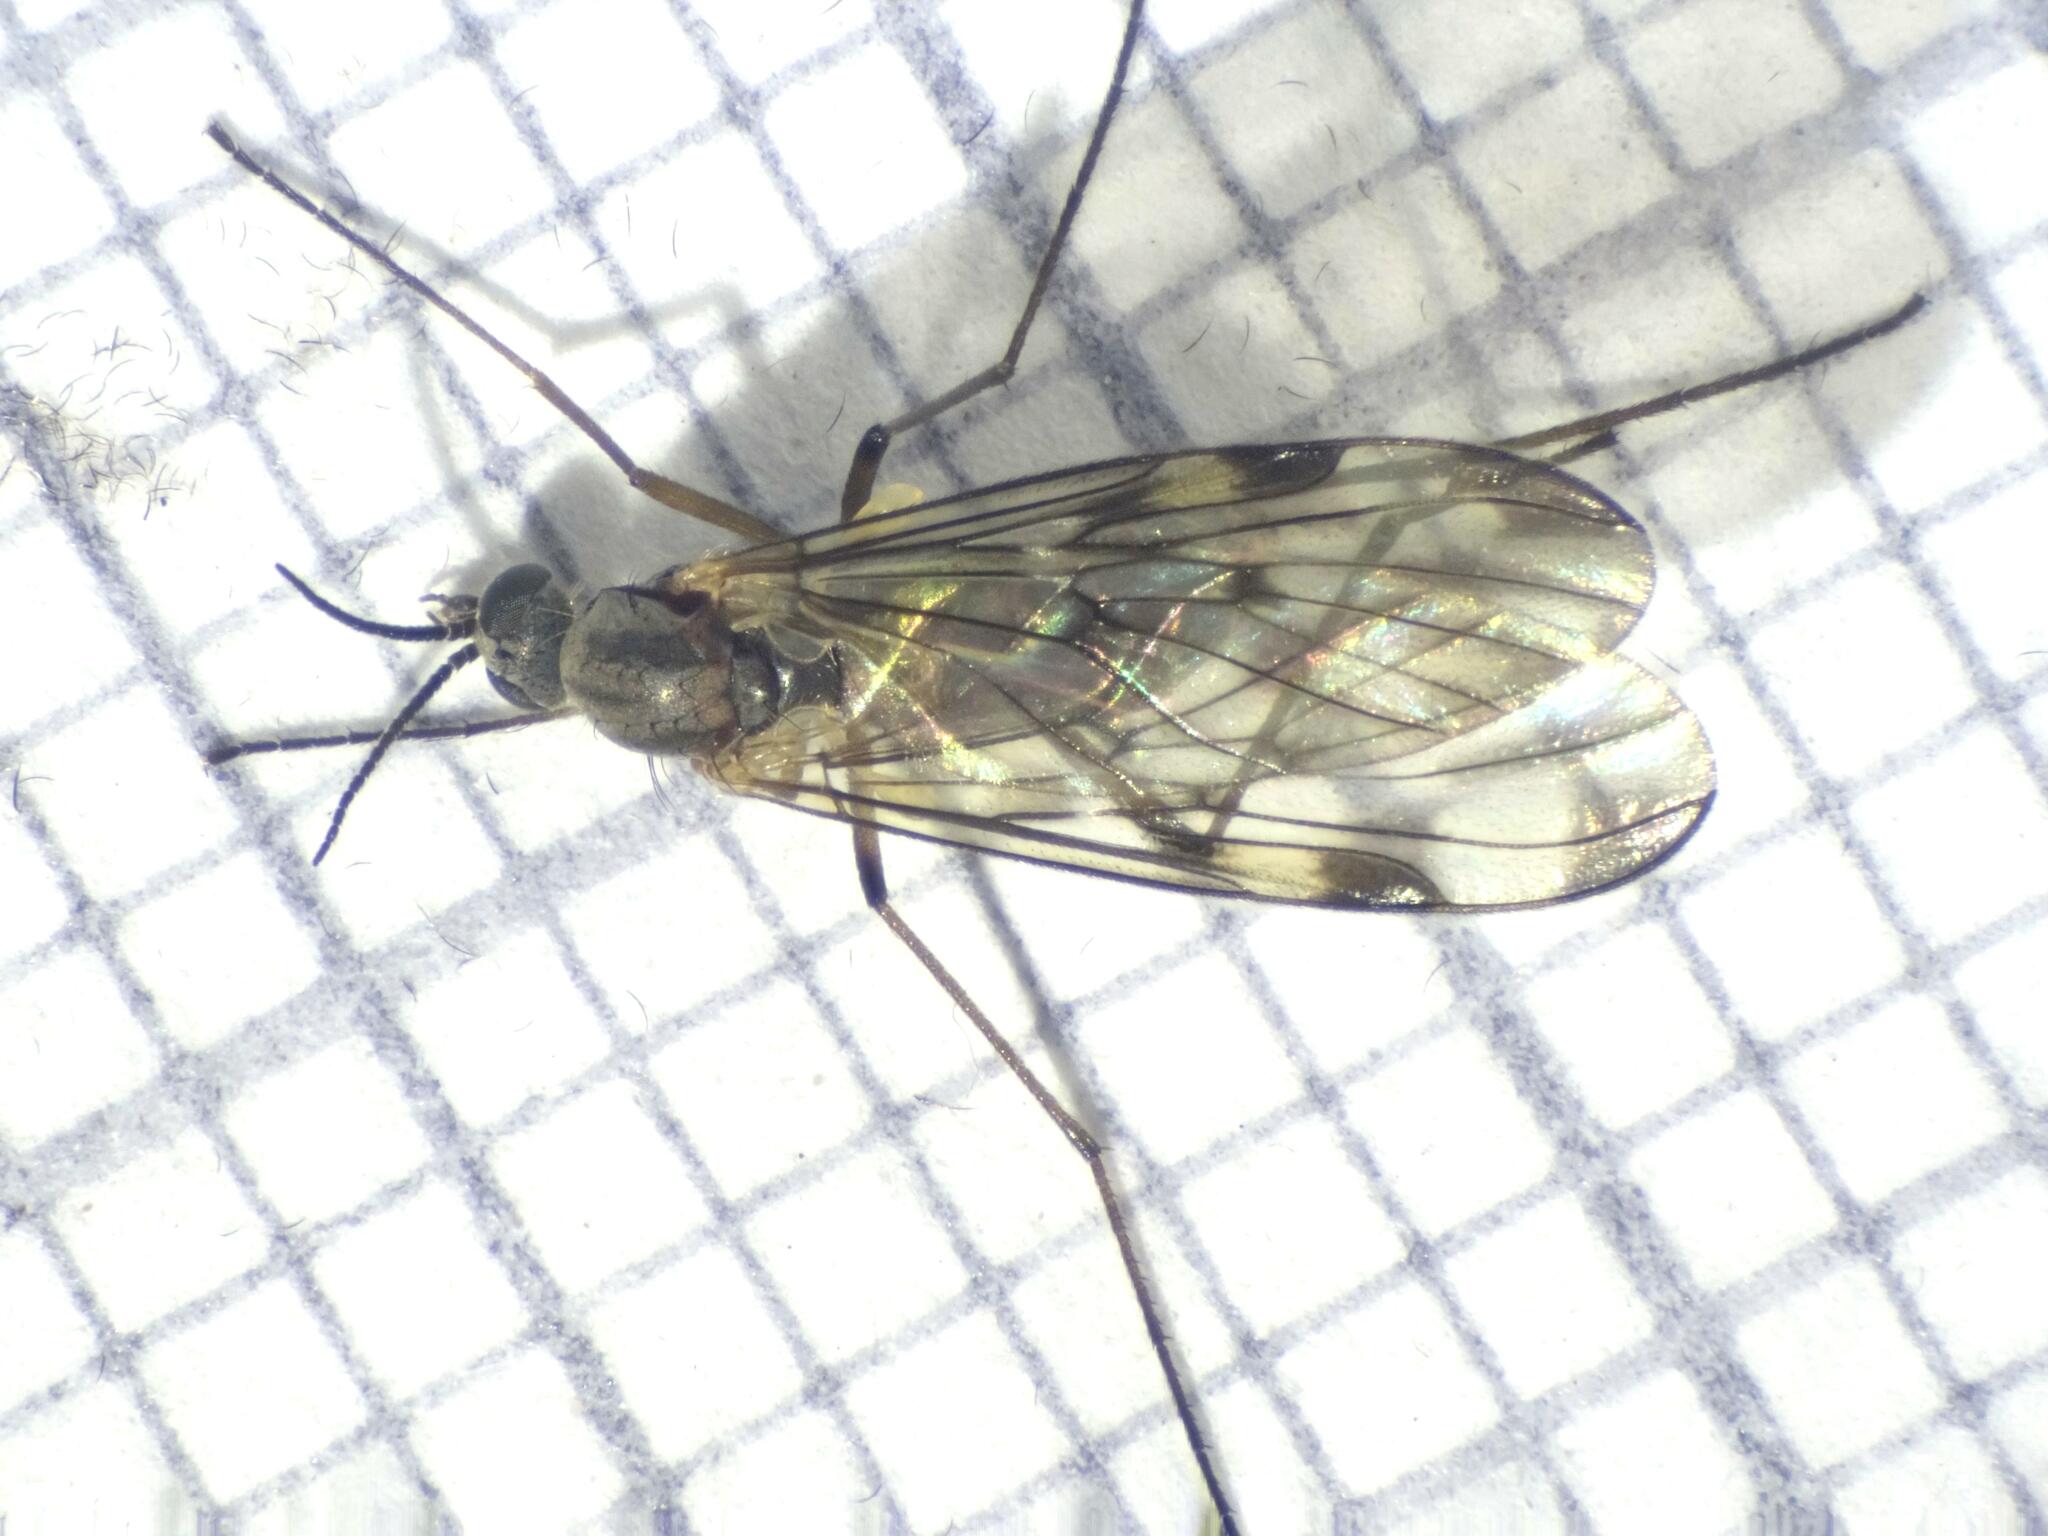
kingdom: Animalia
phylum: Arthropoda
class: Insecta
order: Diptera
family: Anisopodidae
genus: Sylvicola
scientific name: Sylvicola cinctus
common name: Wood gnat
